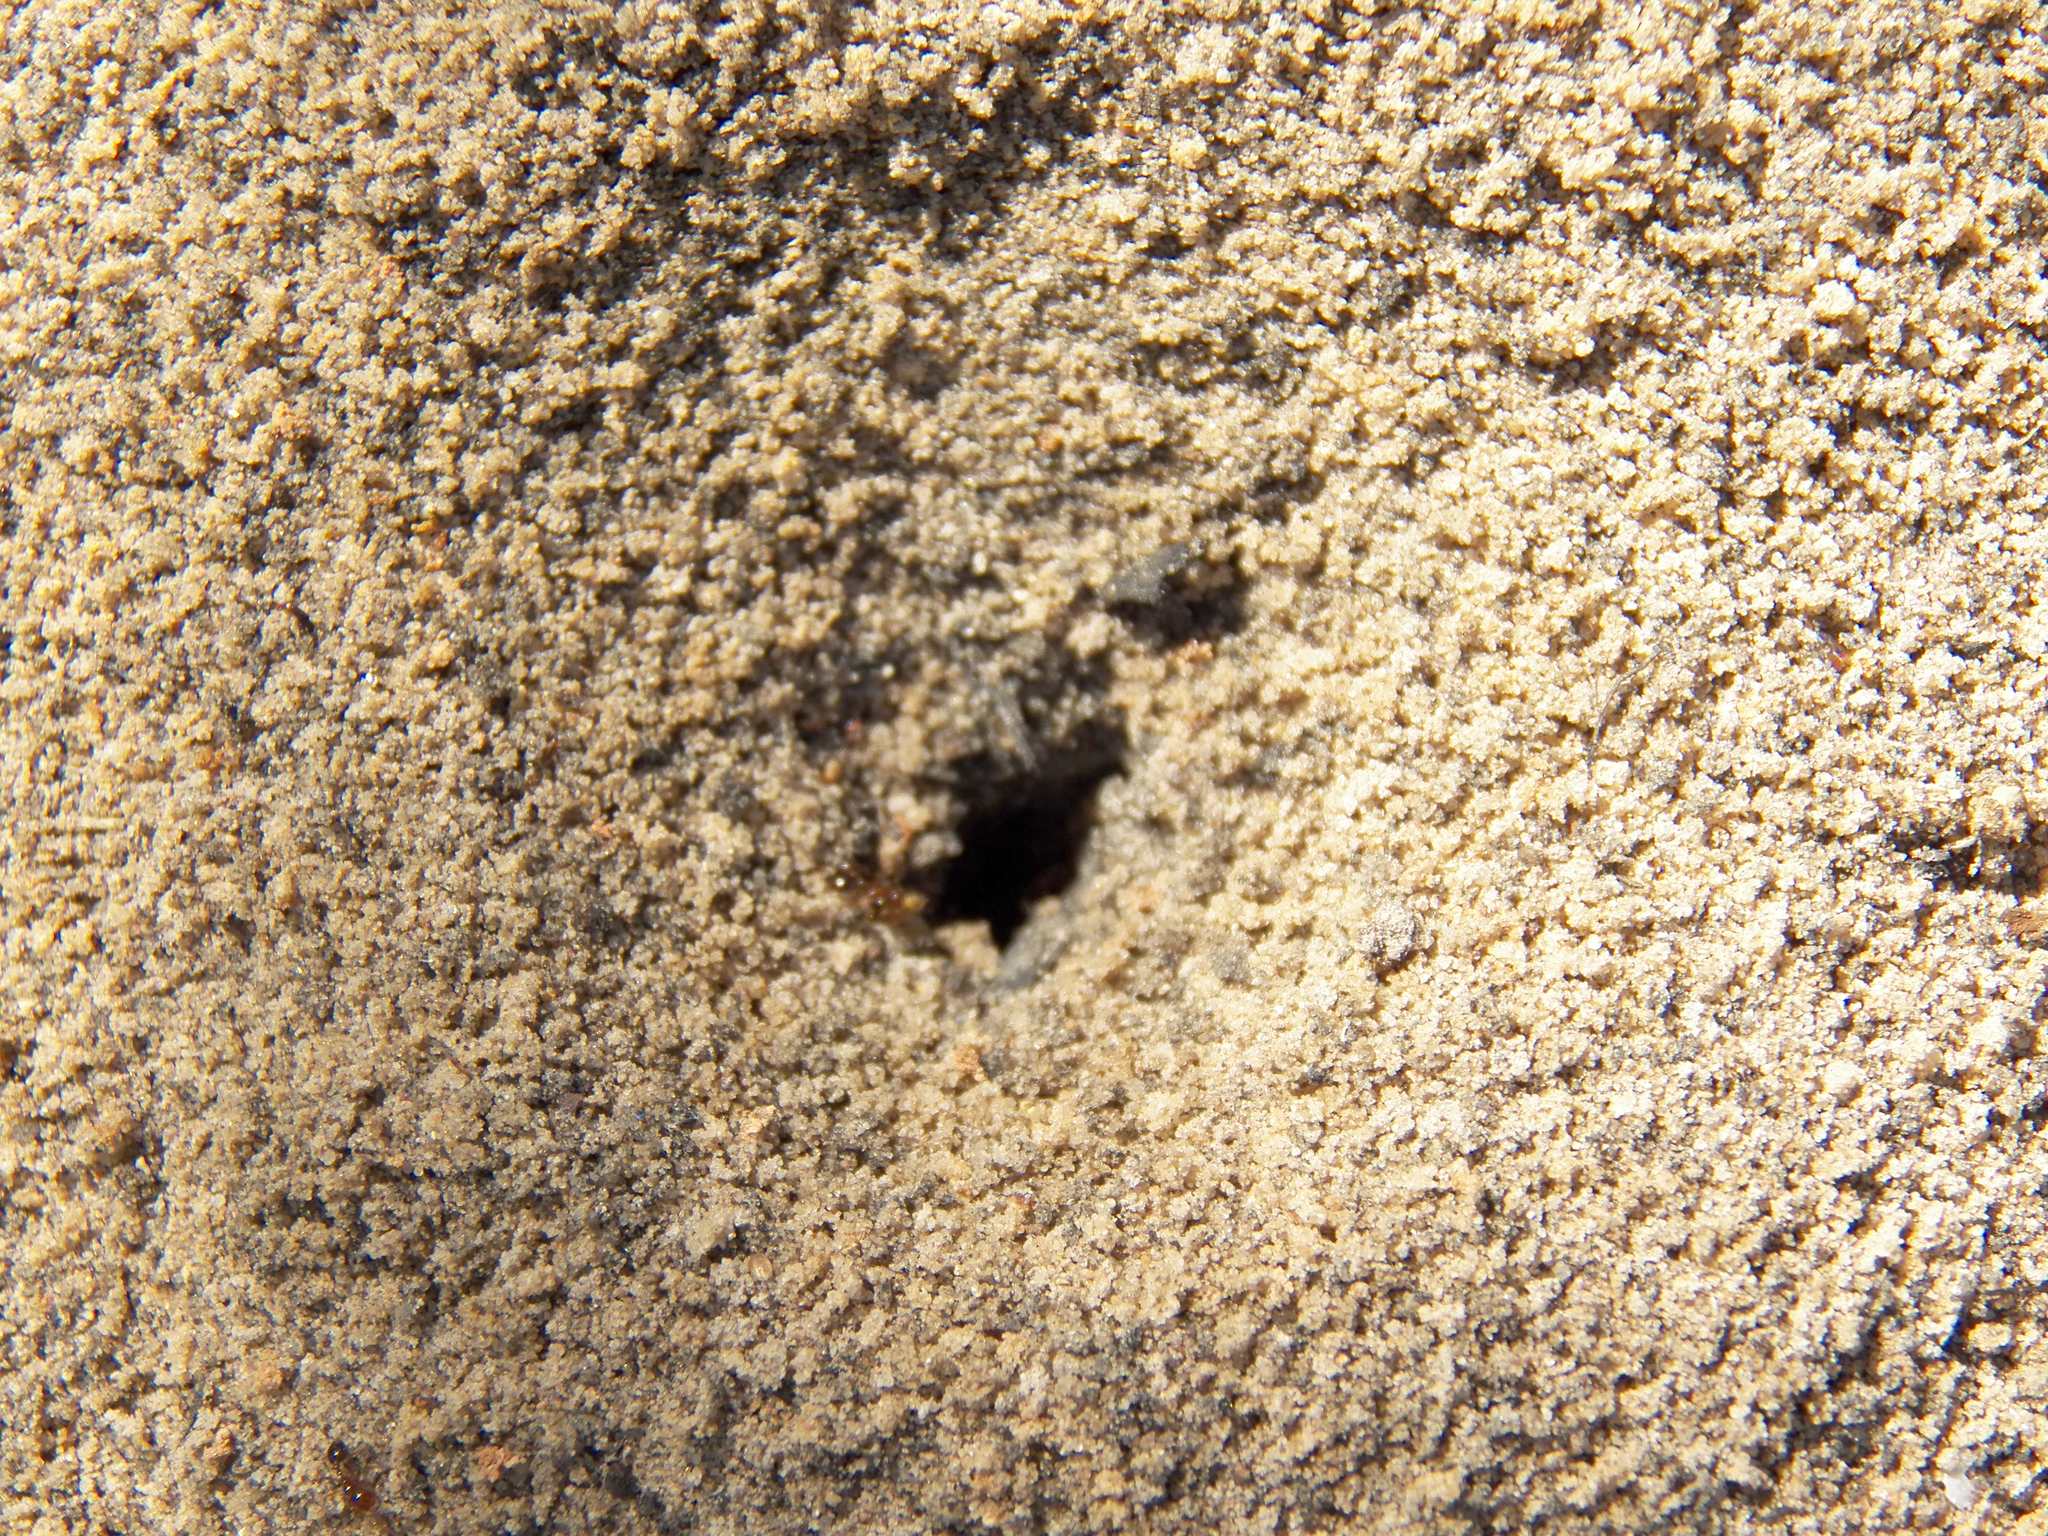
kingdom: Animalia
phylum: Arthropoda
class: Insecta
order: Hymenoptera
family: Formicidae
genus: Solenopsis
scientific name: Solenopsis invicta
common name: Red imported fire ant
